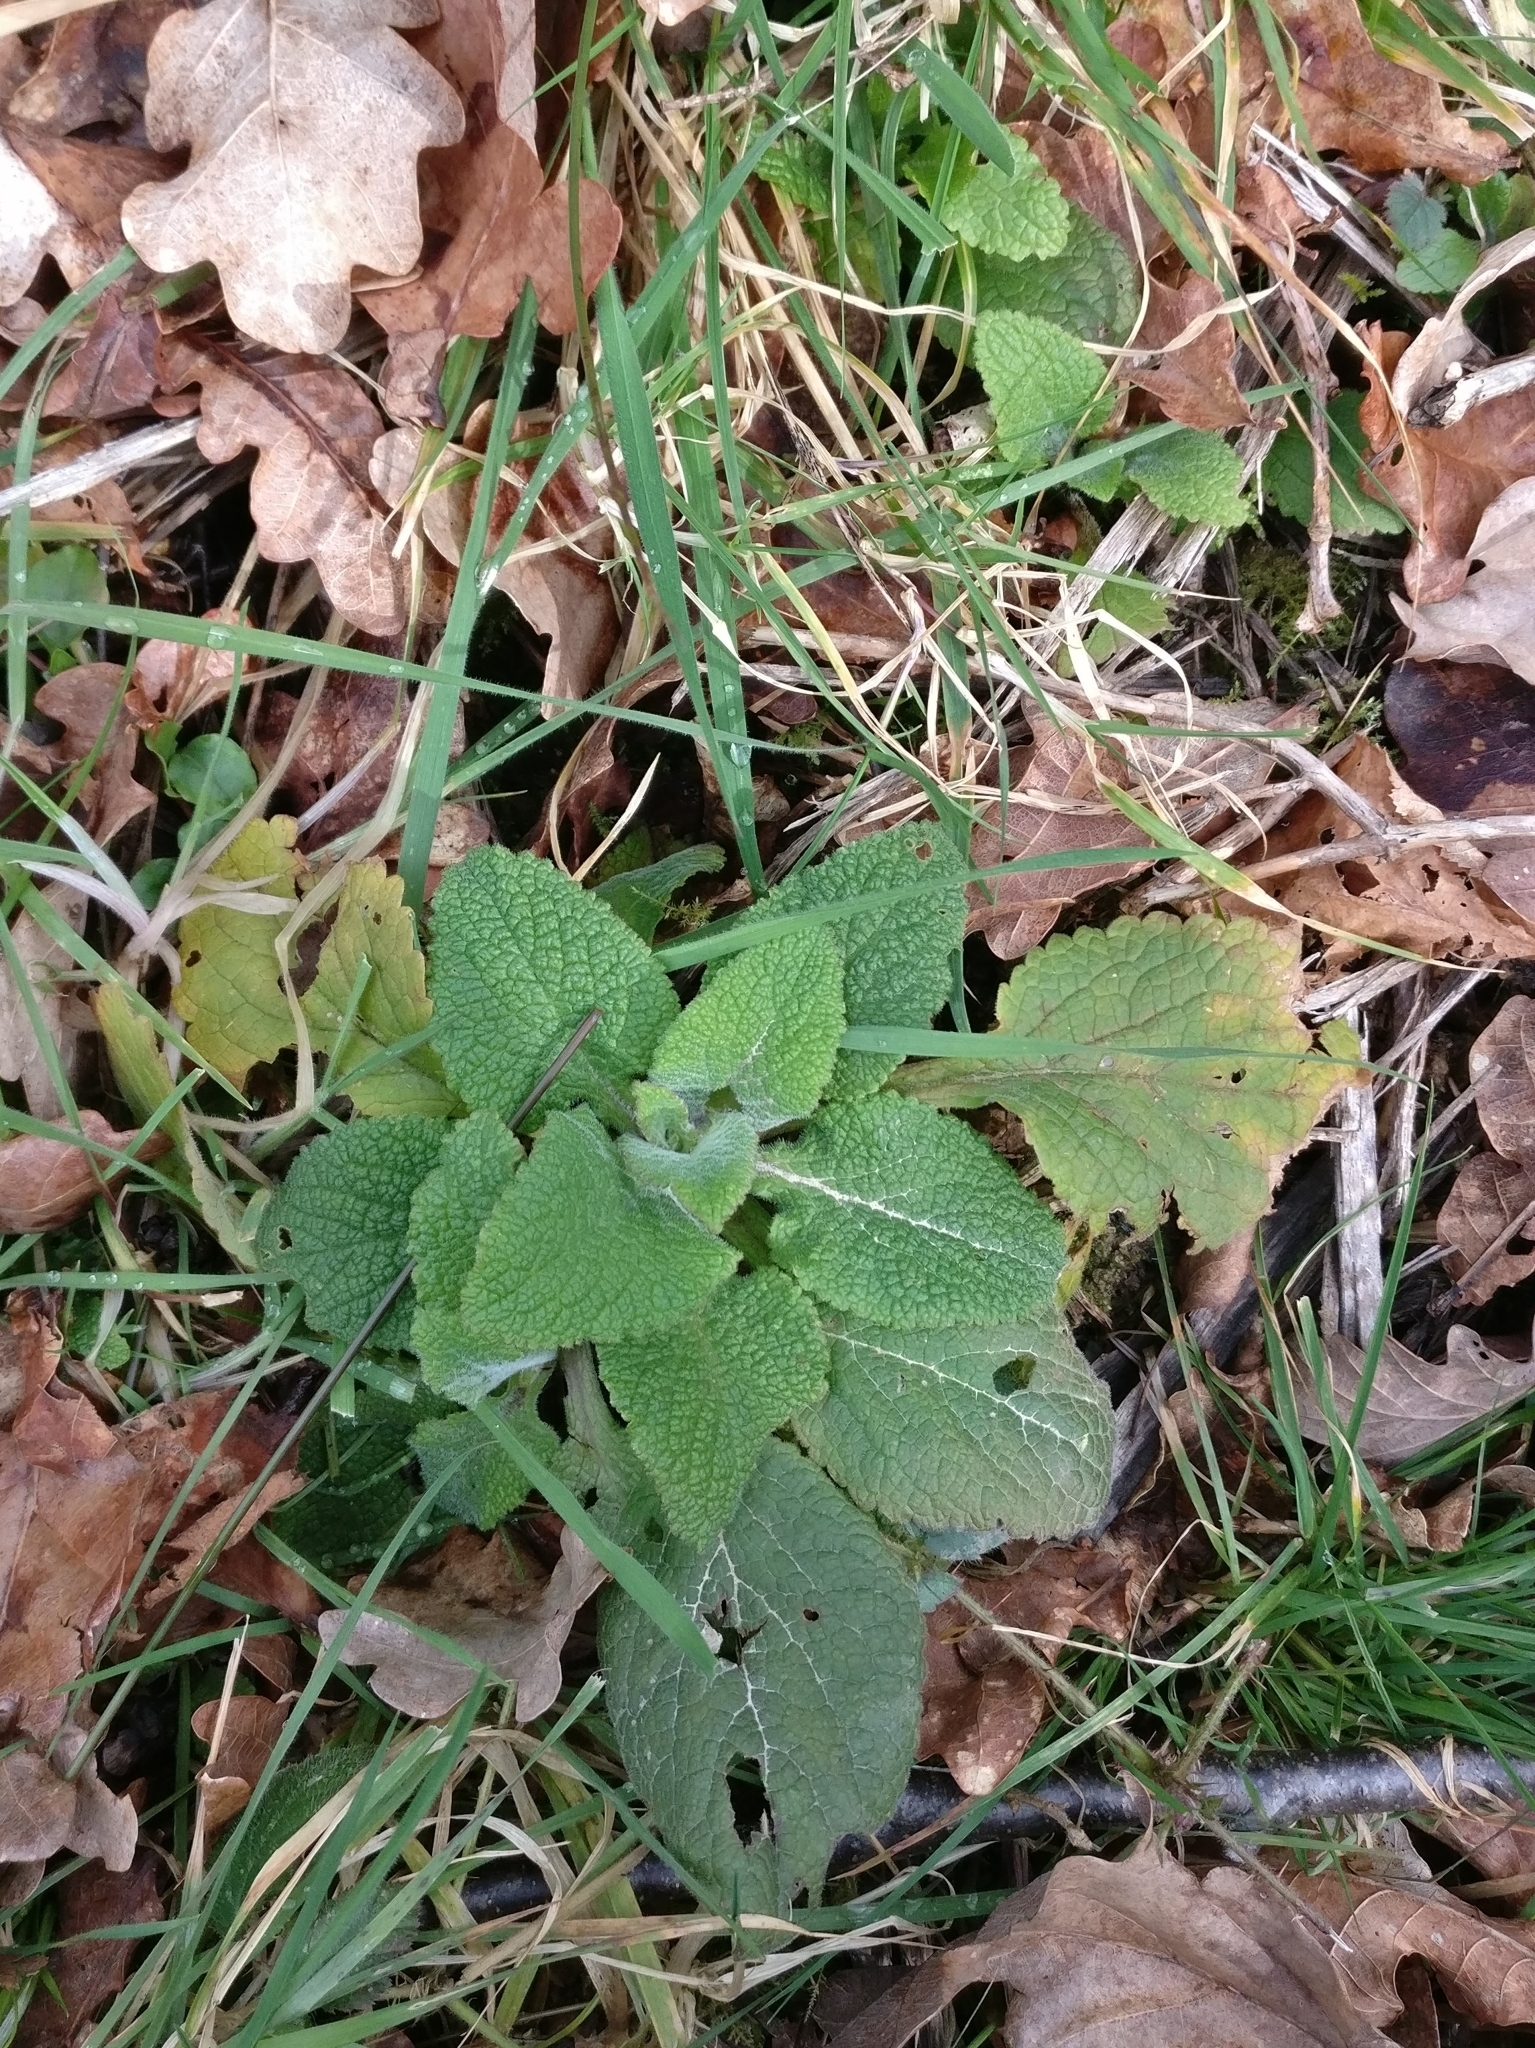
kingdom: Plantae
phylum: Tracheophyta
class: Magnoliopsida
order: Lamiales
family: Plantaginaceae
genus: Digitalis
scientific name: Digitalis purpurea
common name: Foxglove
